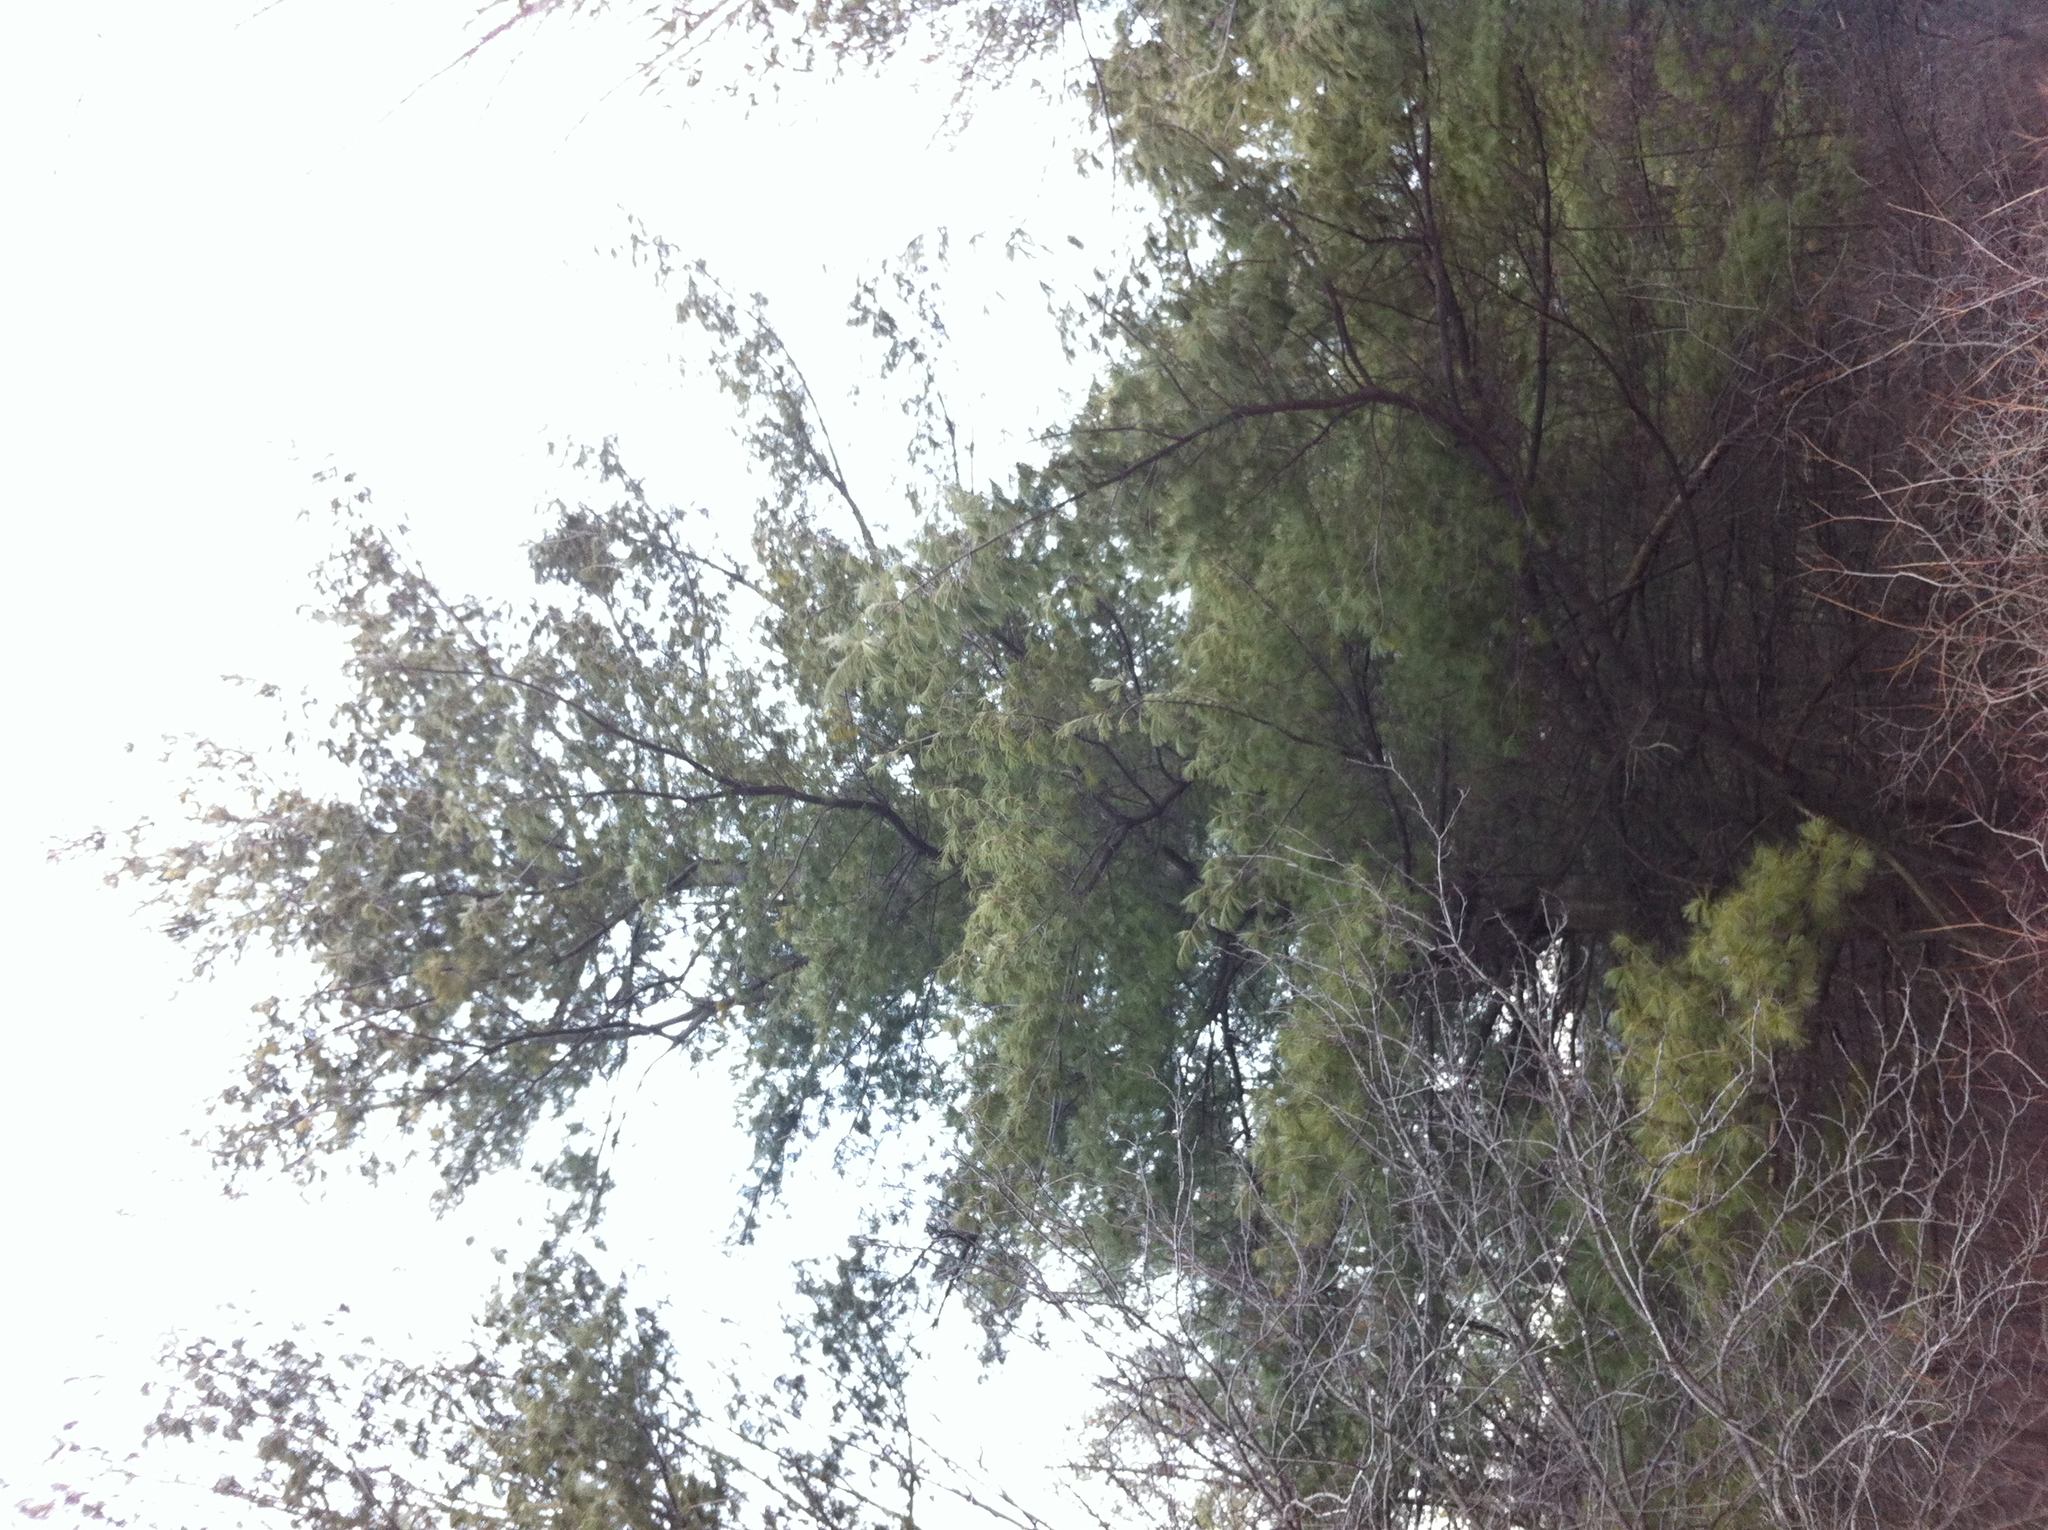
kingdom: Plantae
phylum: Tracheophyta
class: Pinopsida
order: Pinales
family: Pinaceae
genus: Pinus
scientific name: Pinus strobus
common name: Weymouth pine
